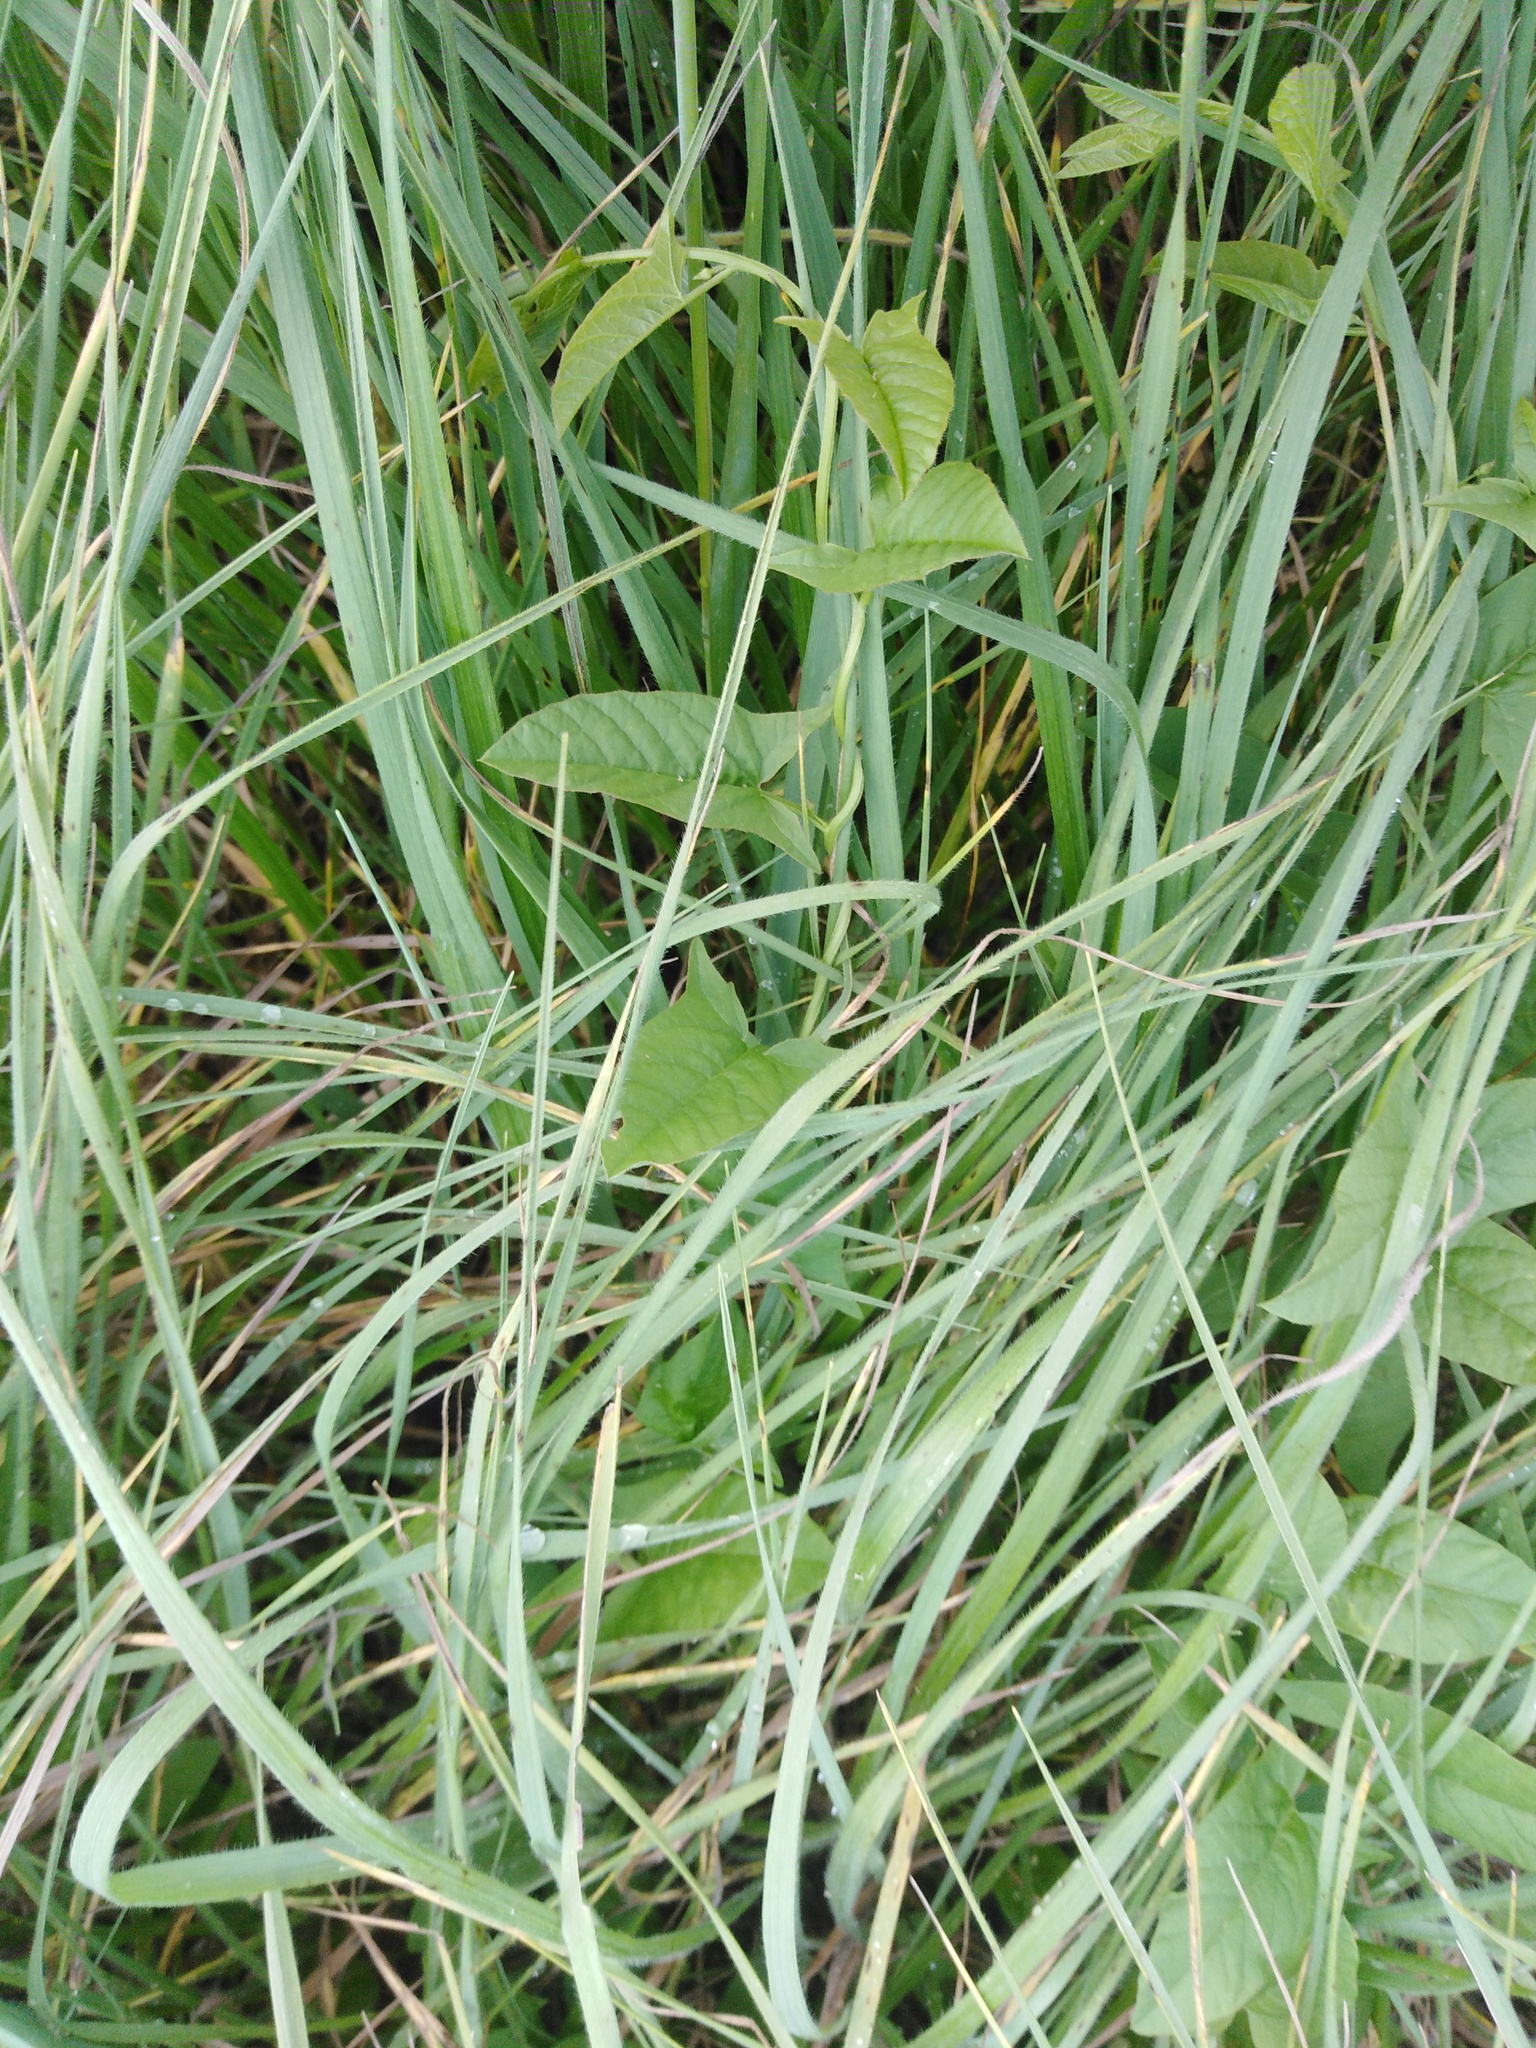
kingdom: Plantae
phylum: Tracheophyta
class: Magnoliopsida
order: Solanales
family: Convolvulaceae
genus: Convolvulus
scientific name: Convolvulus arvensis
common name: Field bindweed
